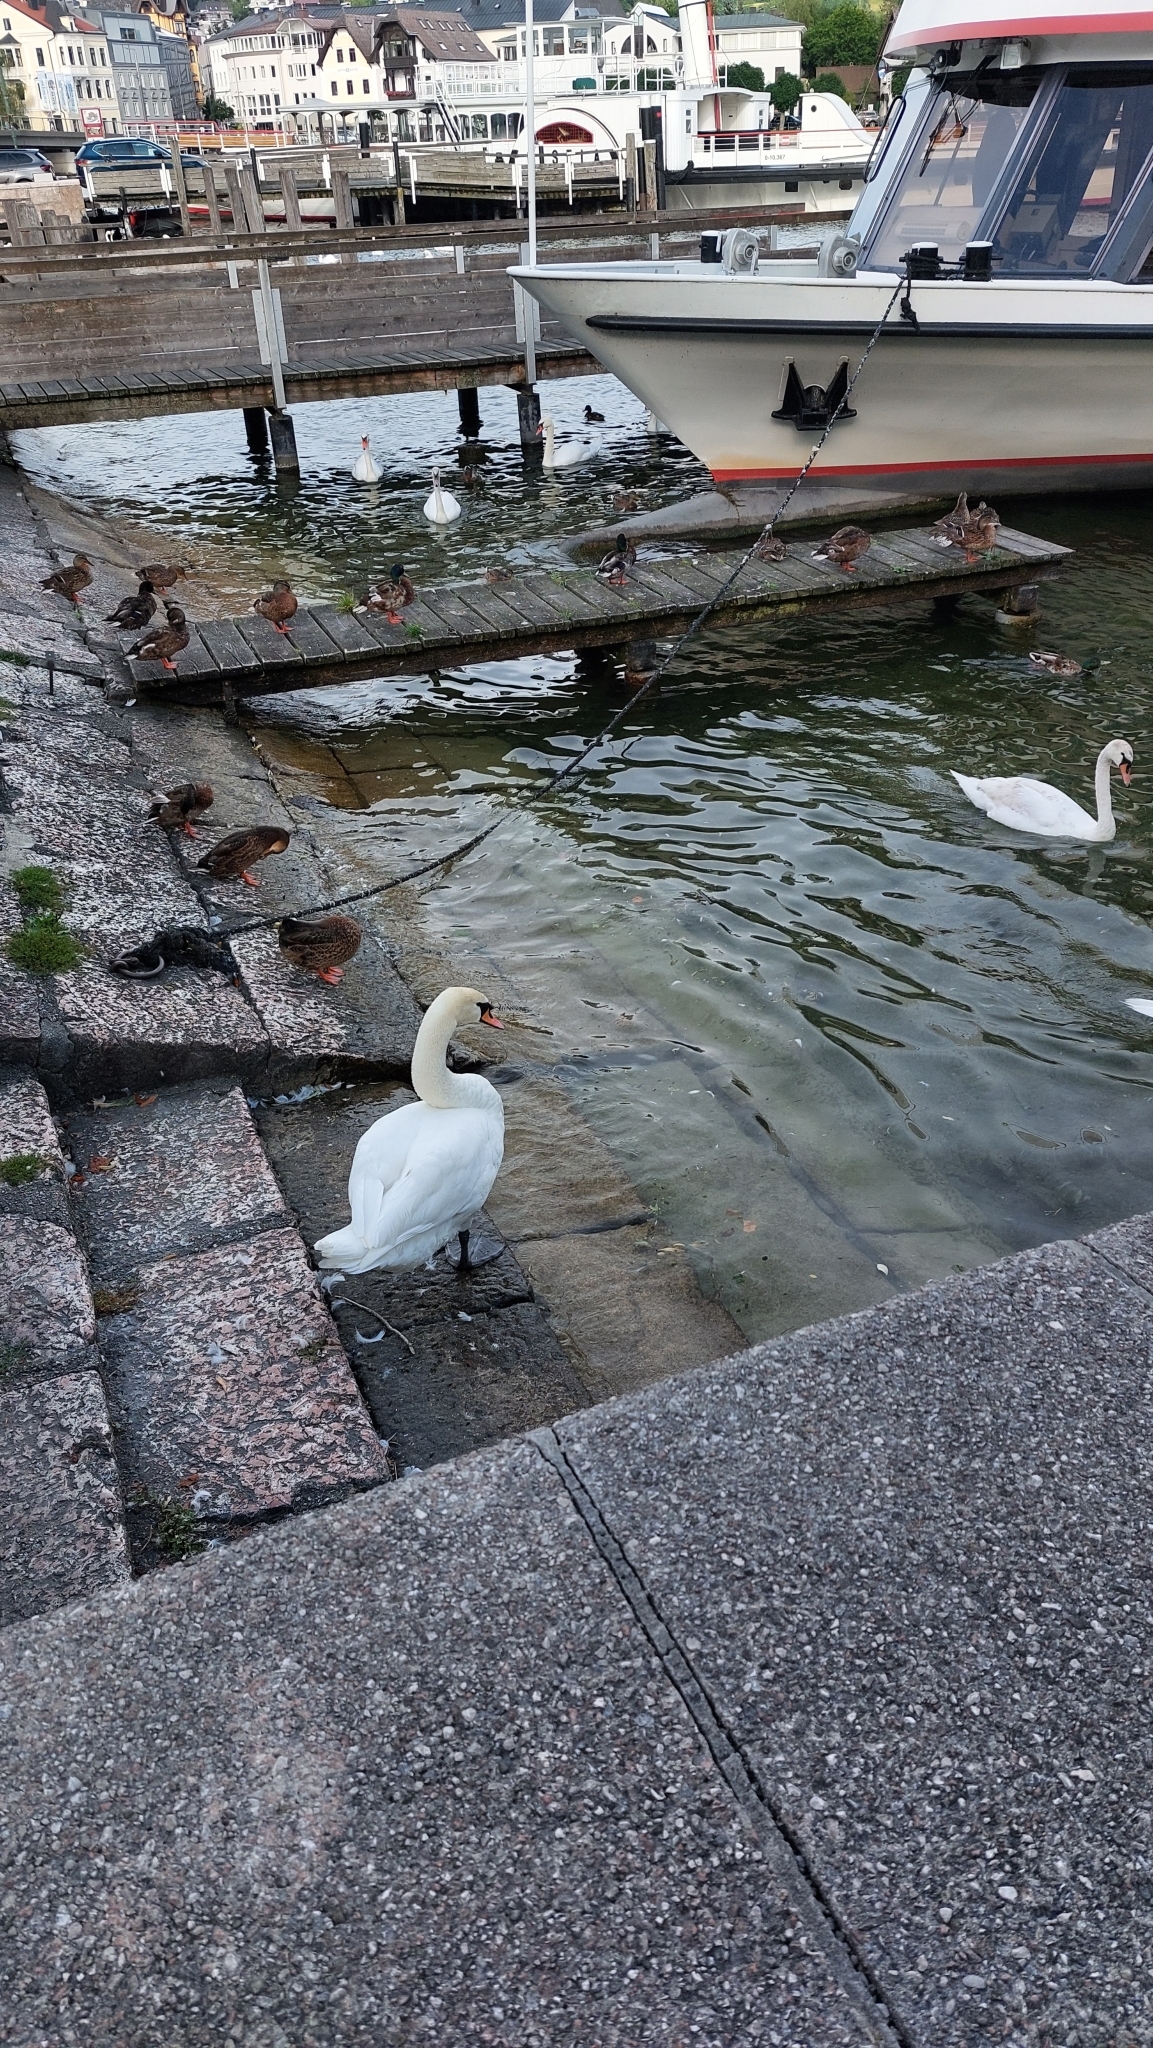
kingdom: Animalia
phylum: Chordata
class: Aves
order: Anseriformes
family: Anatidae
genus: Cygnus
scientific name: Cygnus olor
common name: Mute swan
